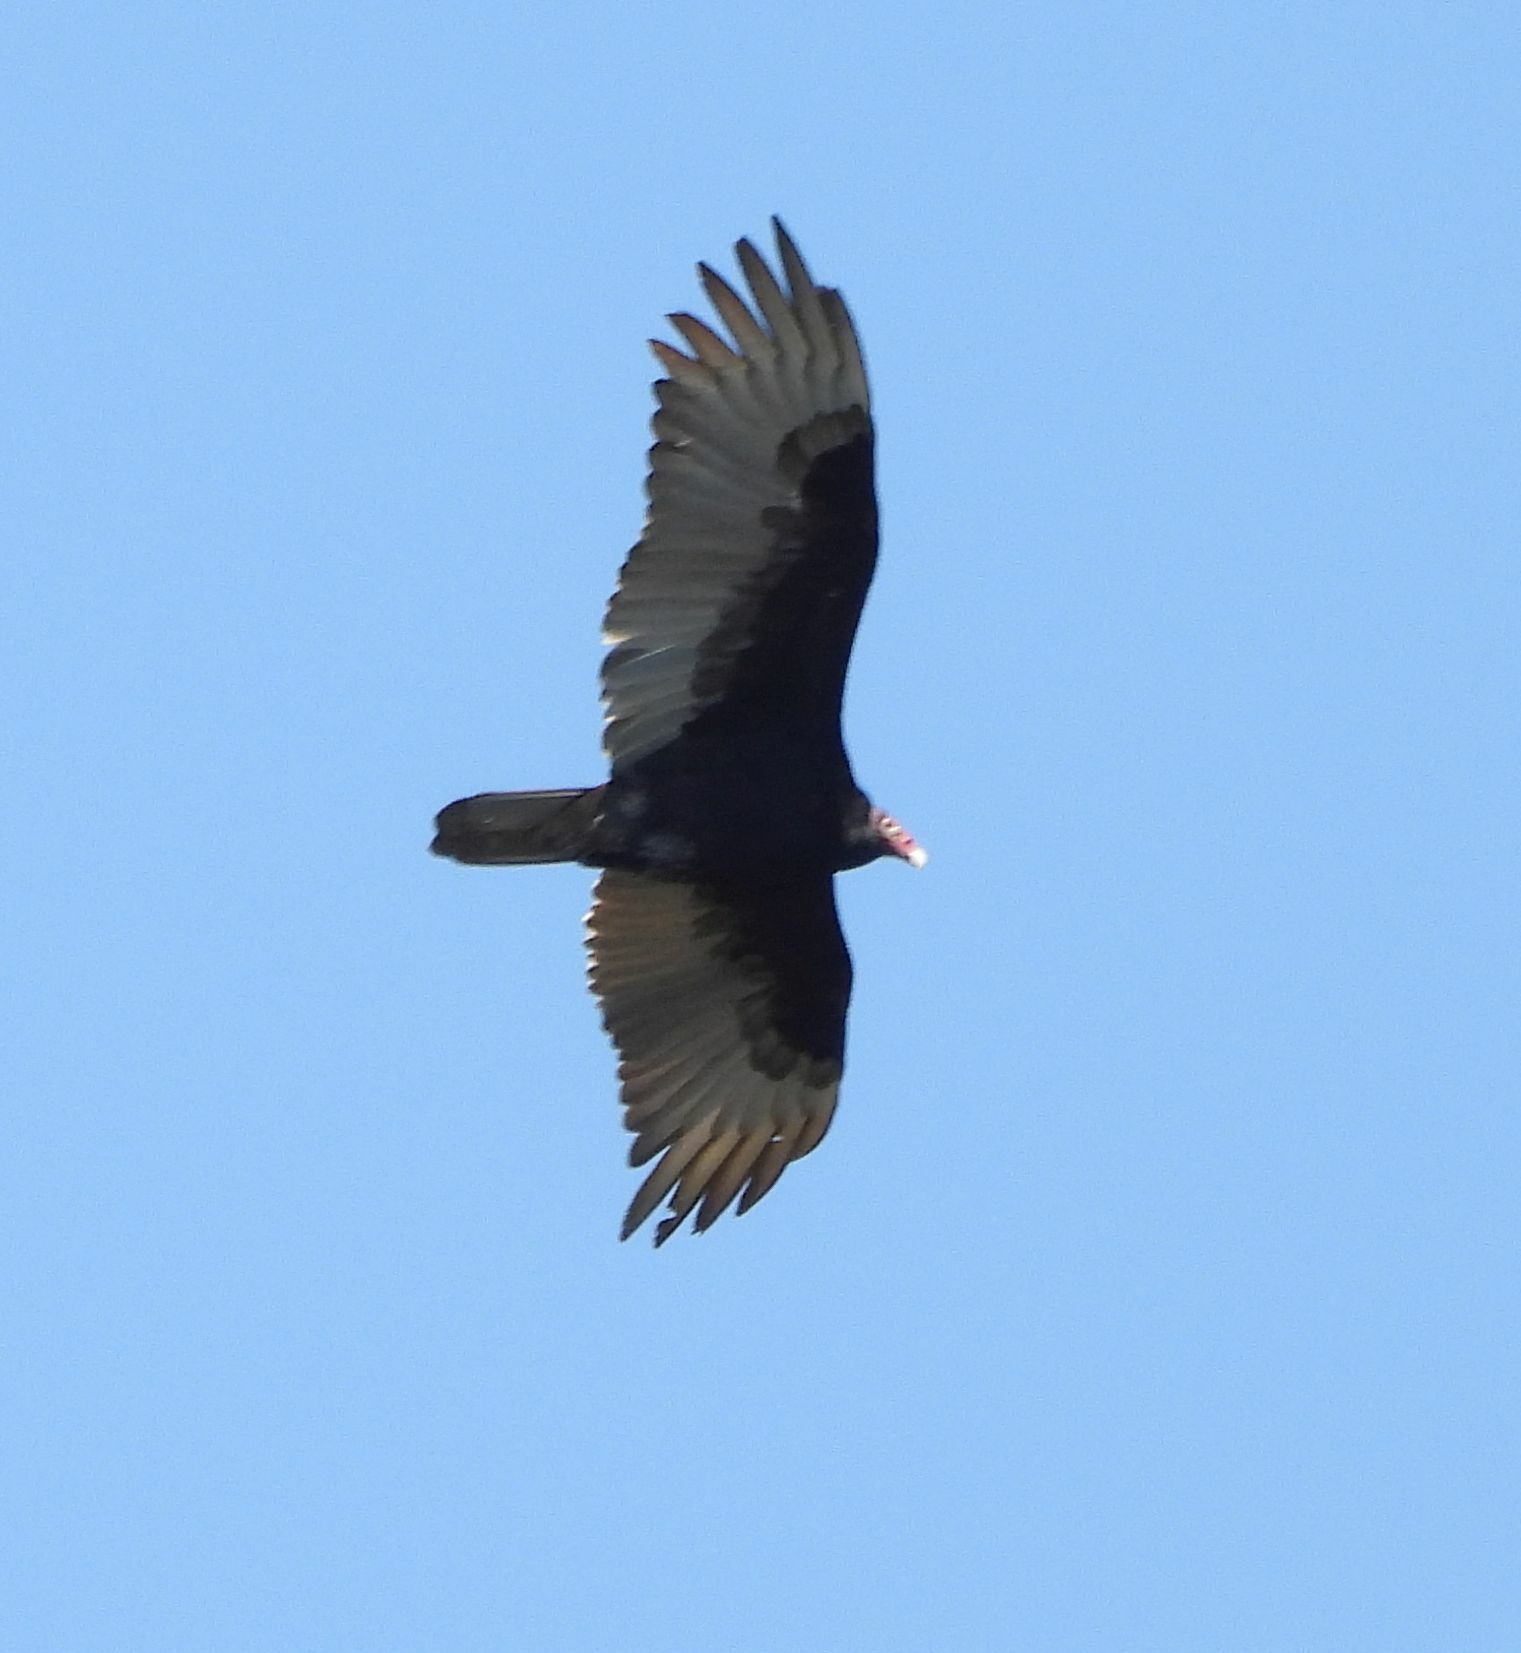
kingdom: Animalia
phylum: Chordata
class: Aves
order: Accipitriformes
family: Cathartidae
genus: Cathartes
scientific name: Cathartes aura
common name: Turkey vulture
